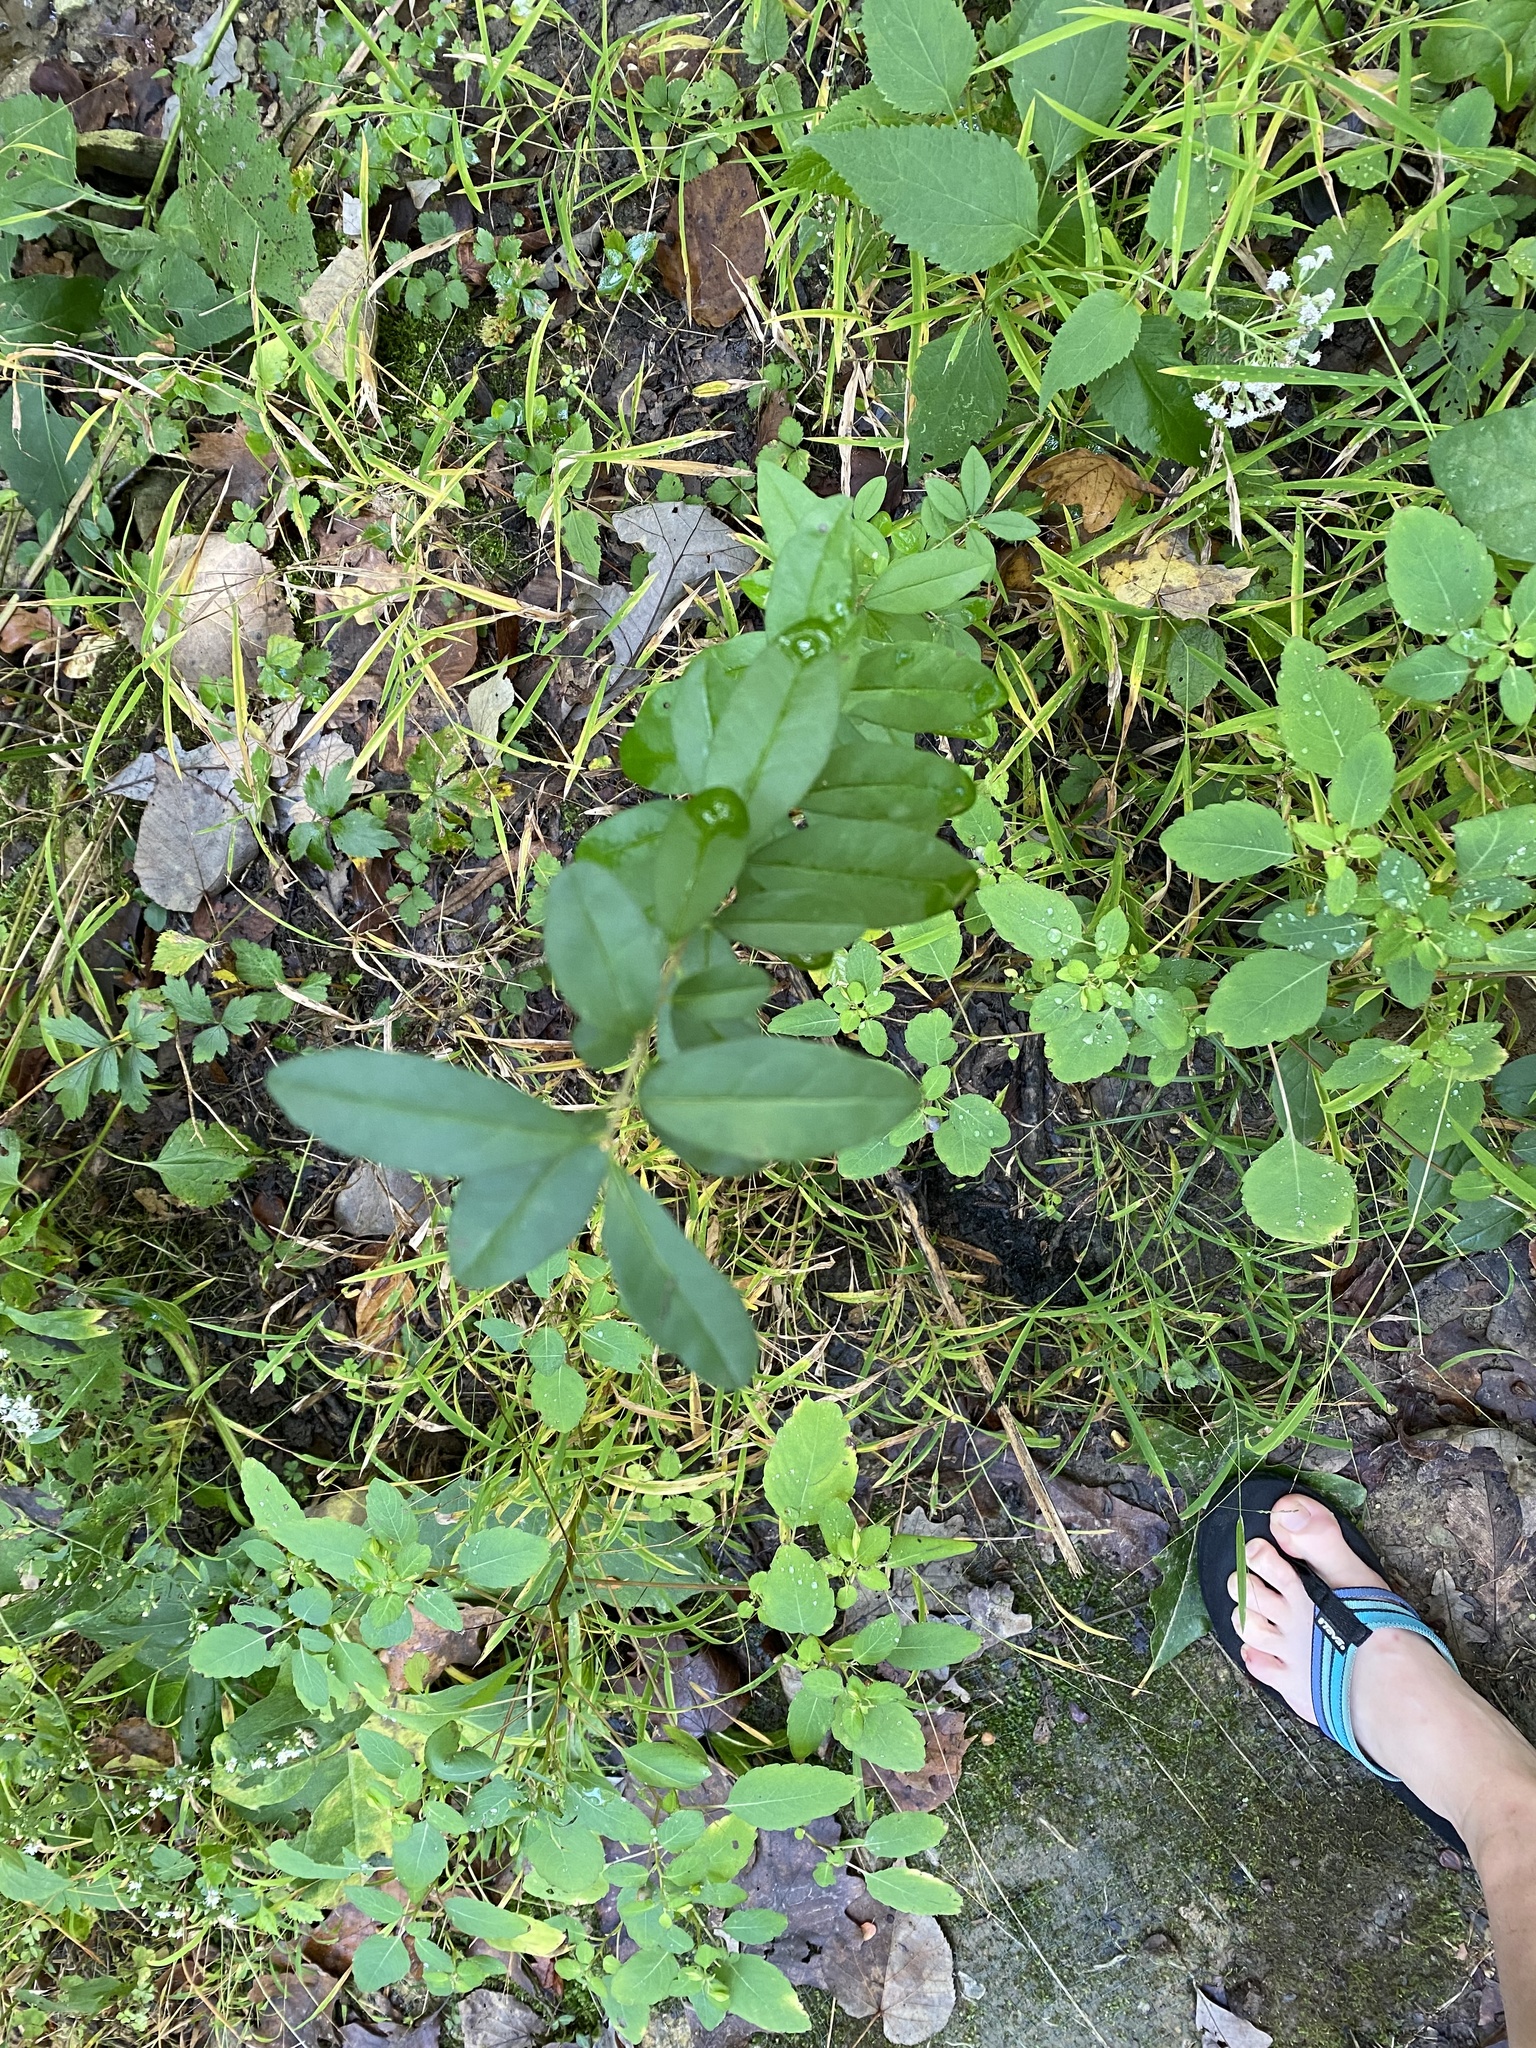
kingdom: Plantae
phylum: Tracheophyta
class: Magnoliopsida
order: Lamiales
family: Oleaceae
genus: Ligustrum
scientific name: Ligustrum
